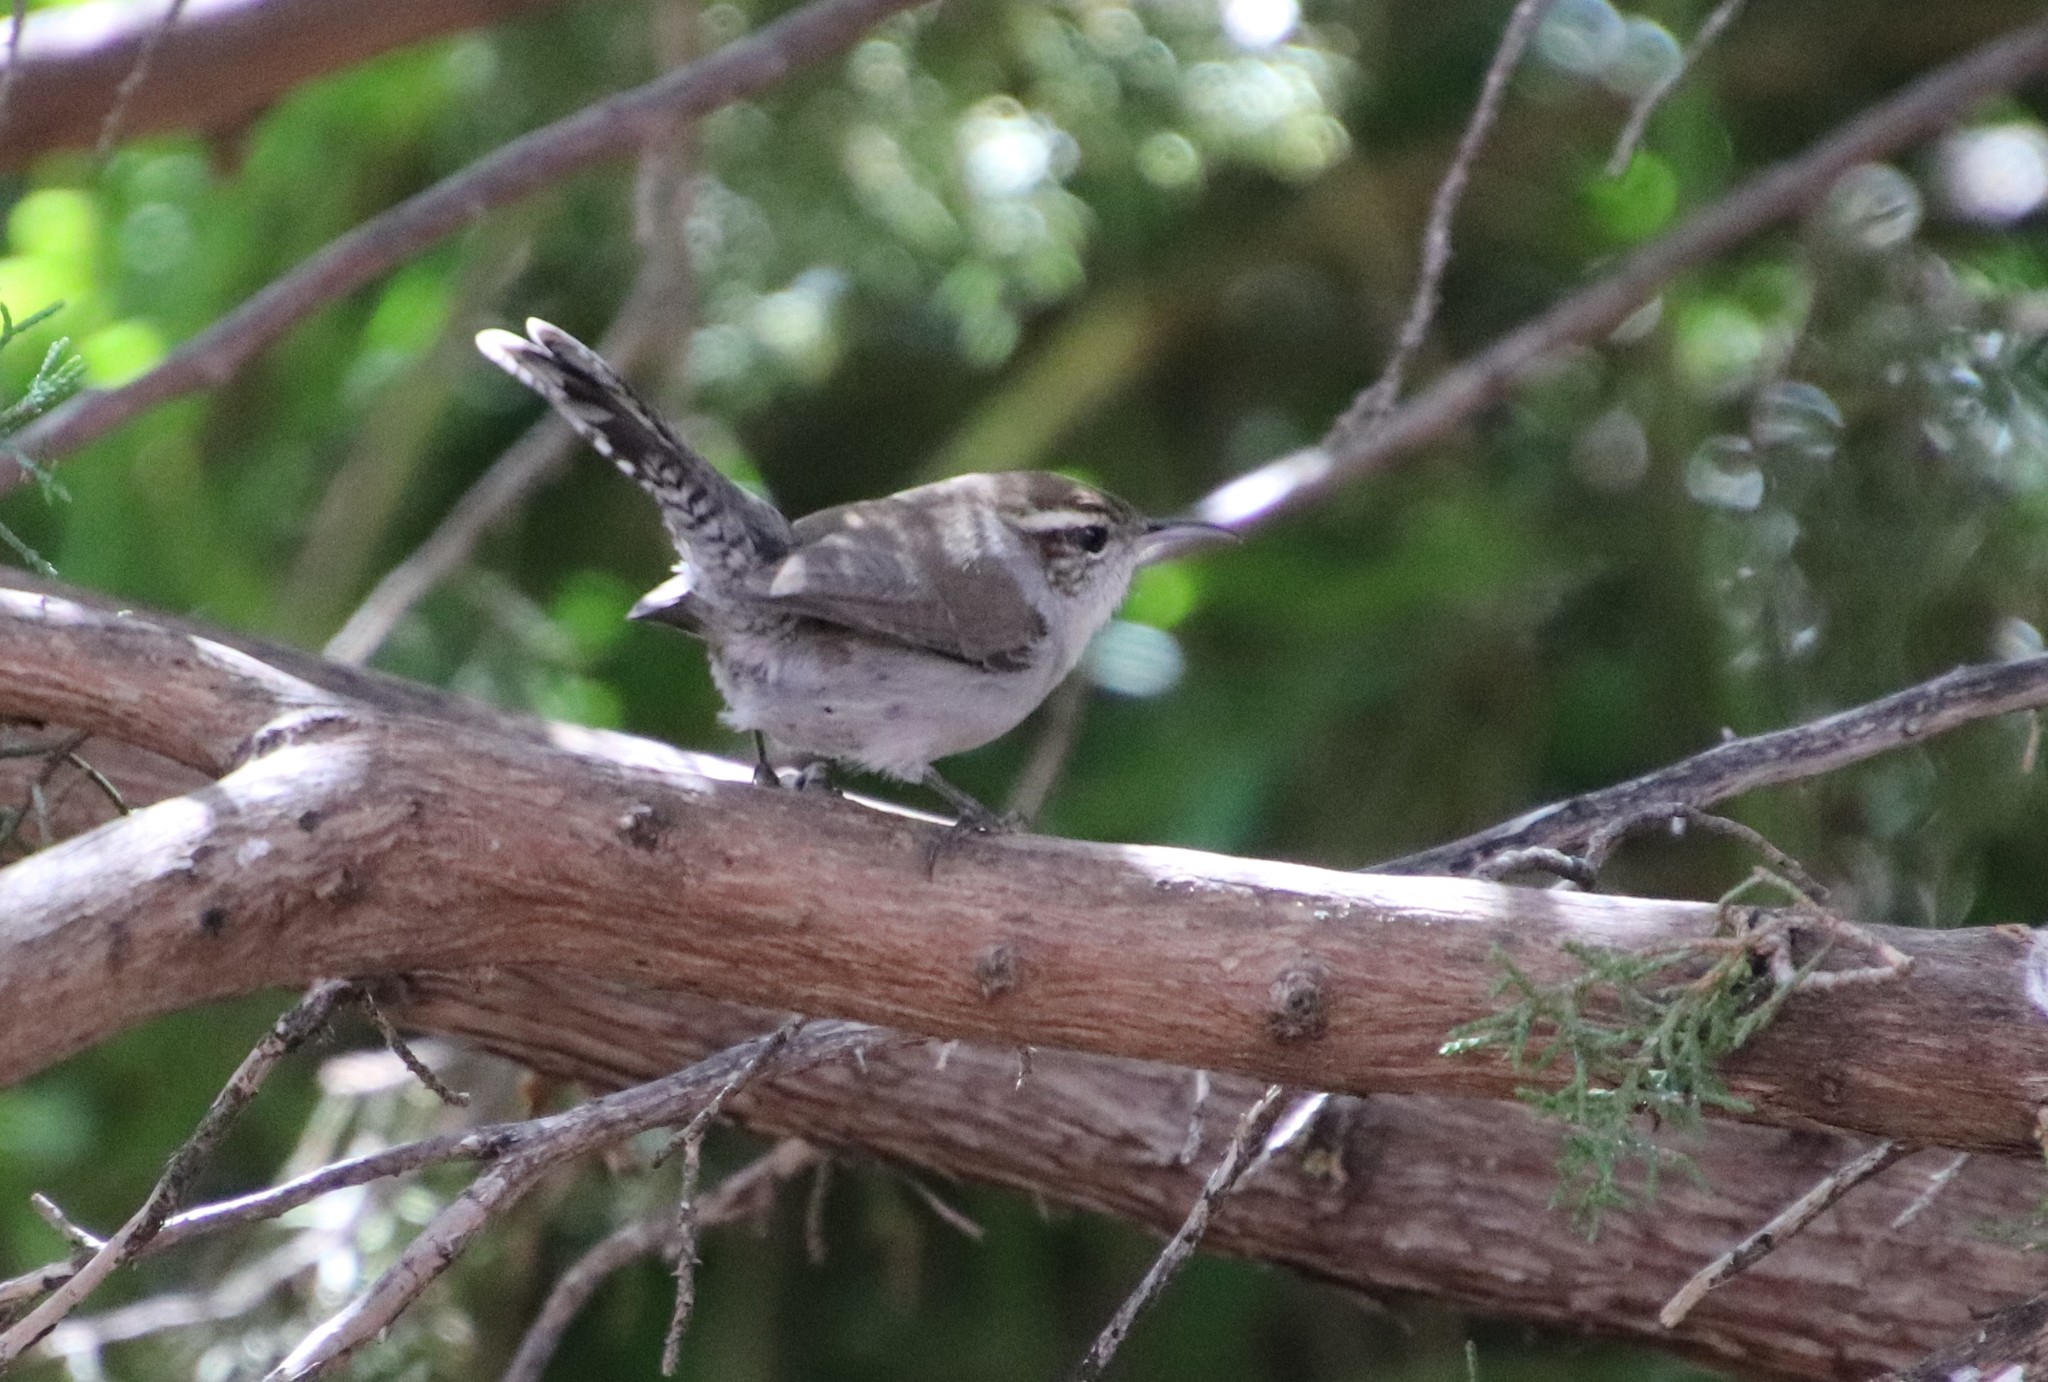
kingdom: Animalia
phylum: Chordata
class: Aves
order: Passeriformes
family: Troglodytidae
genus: Thryomanes
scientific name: Thryomanes bewickii
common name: Bewick's wren
